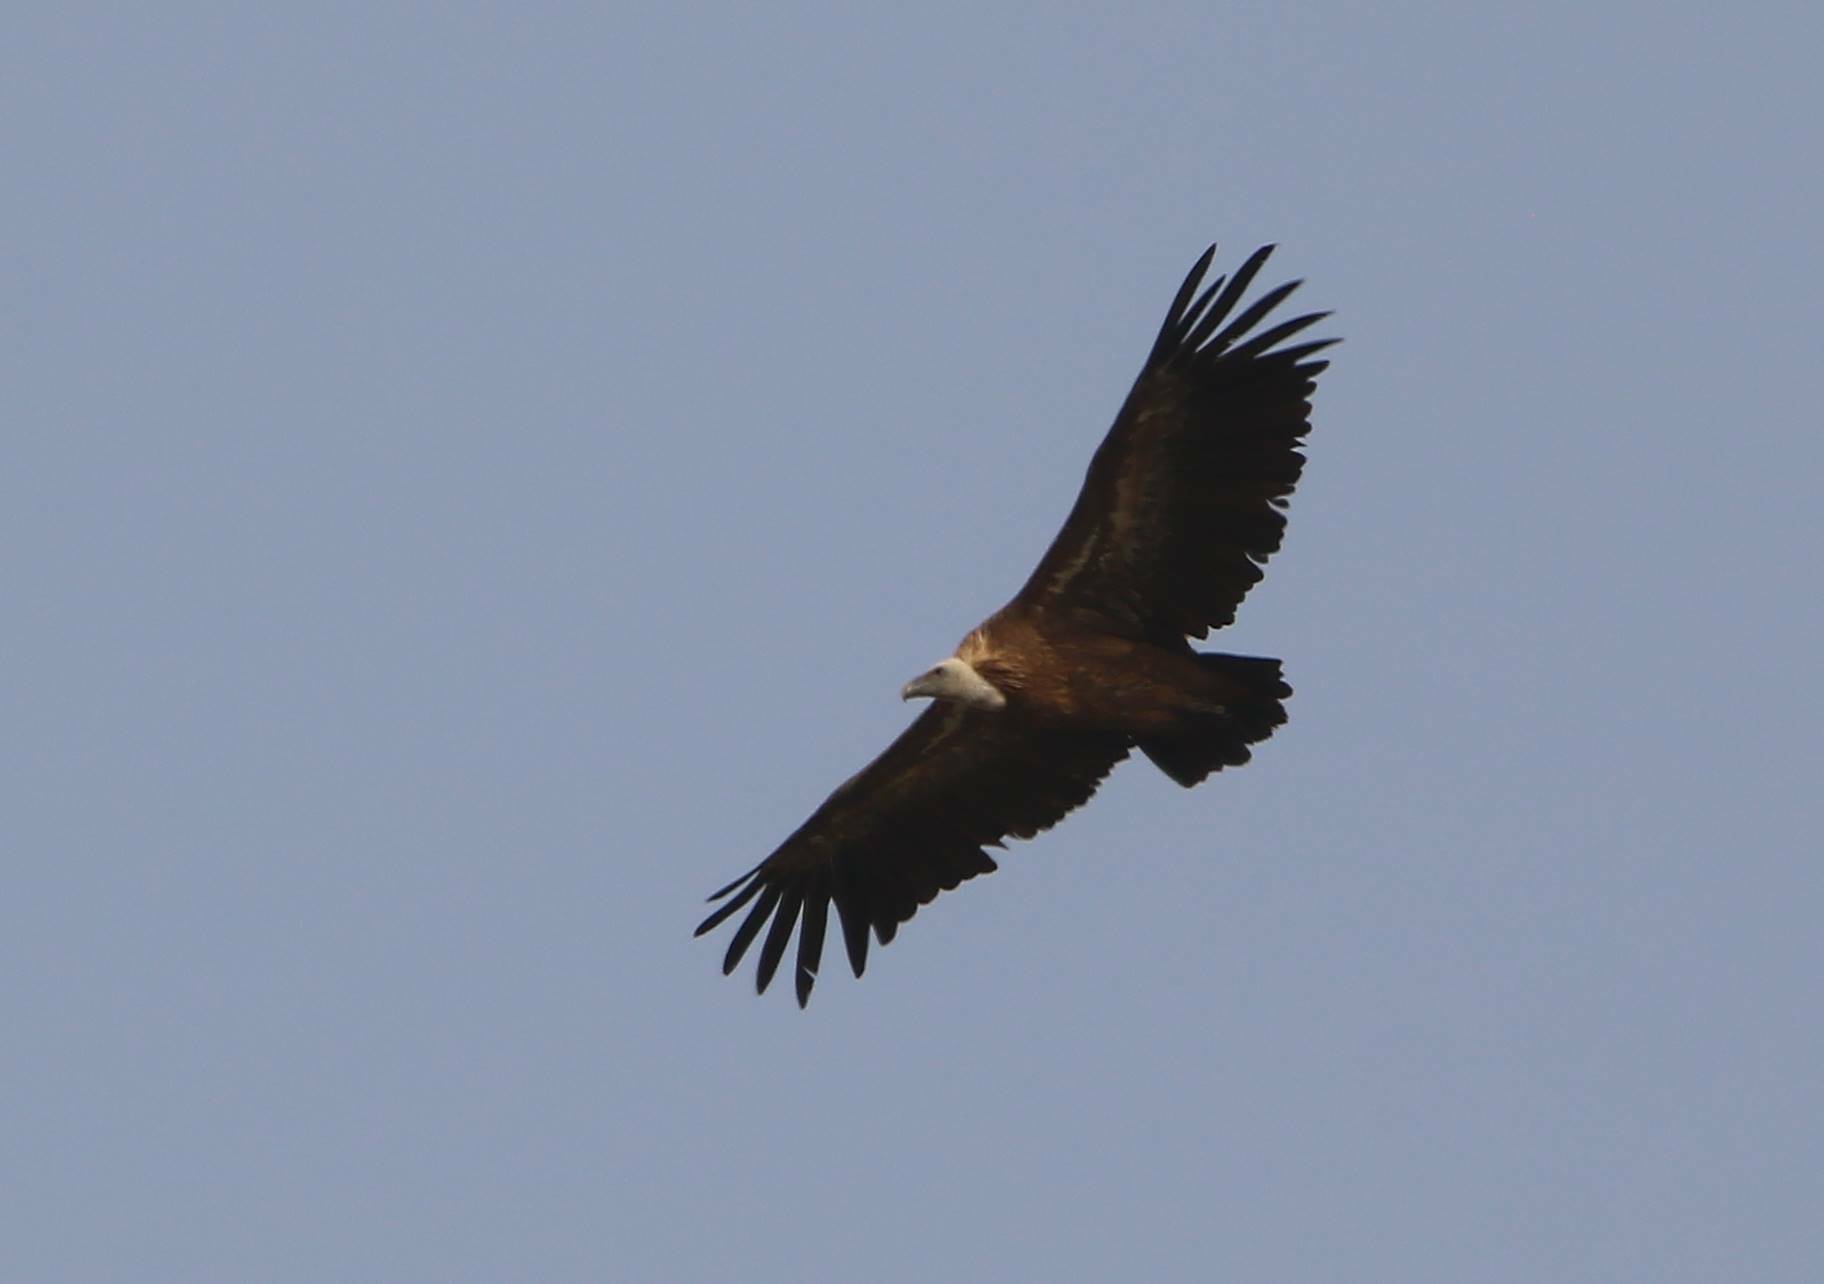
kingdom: Animalia
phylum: Chordata
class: Aves
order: Accipitriformes
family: Accipitridae
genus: Gyps
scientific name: Gyps fulvus
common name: Griffon vulture
